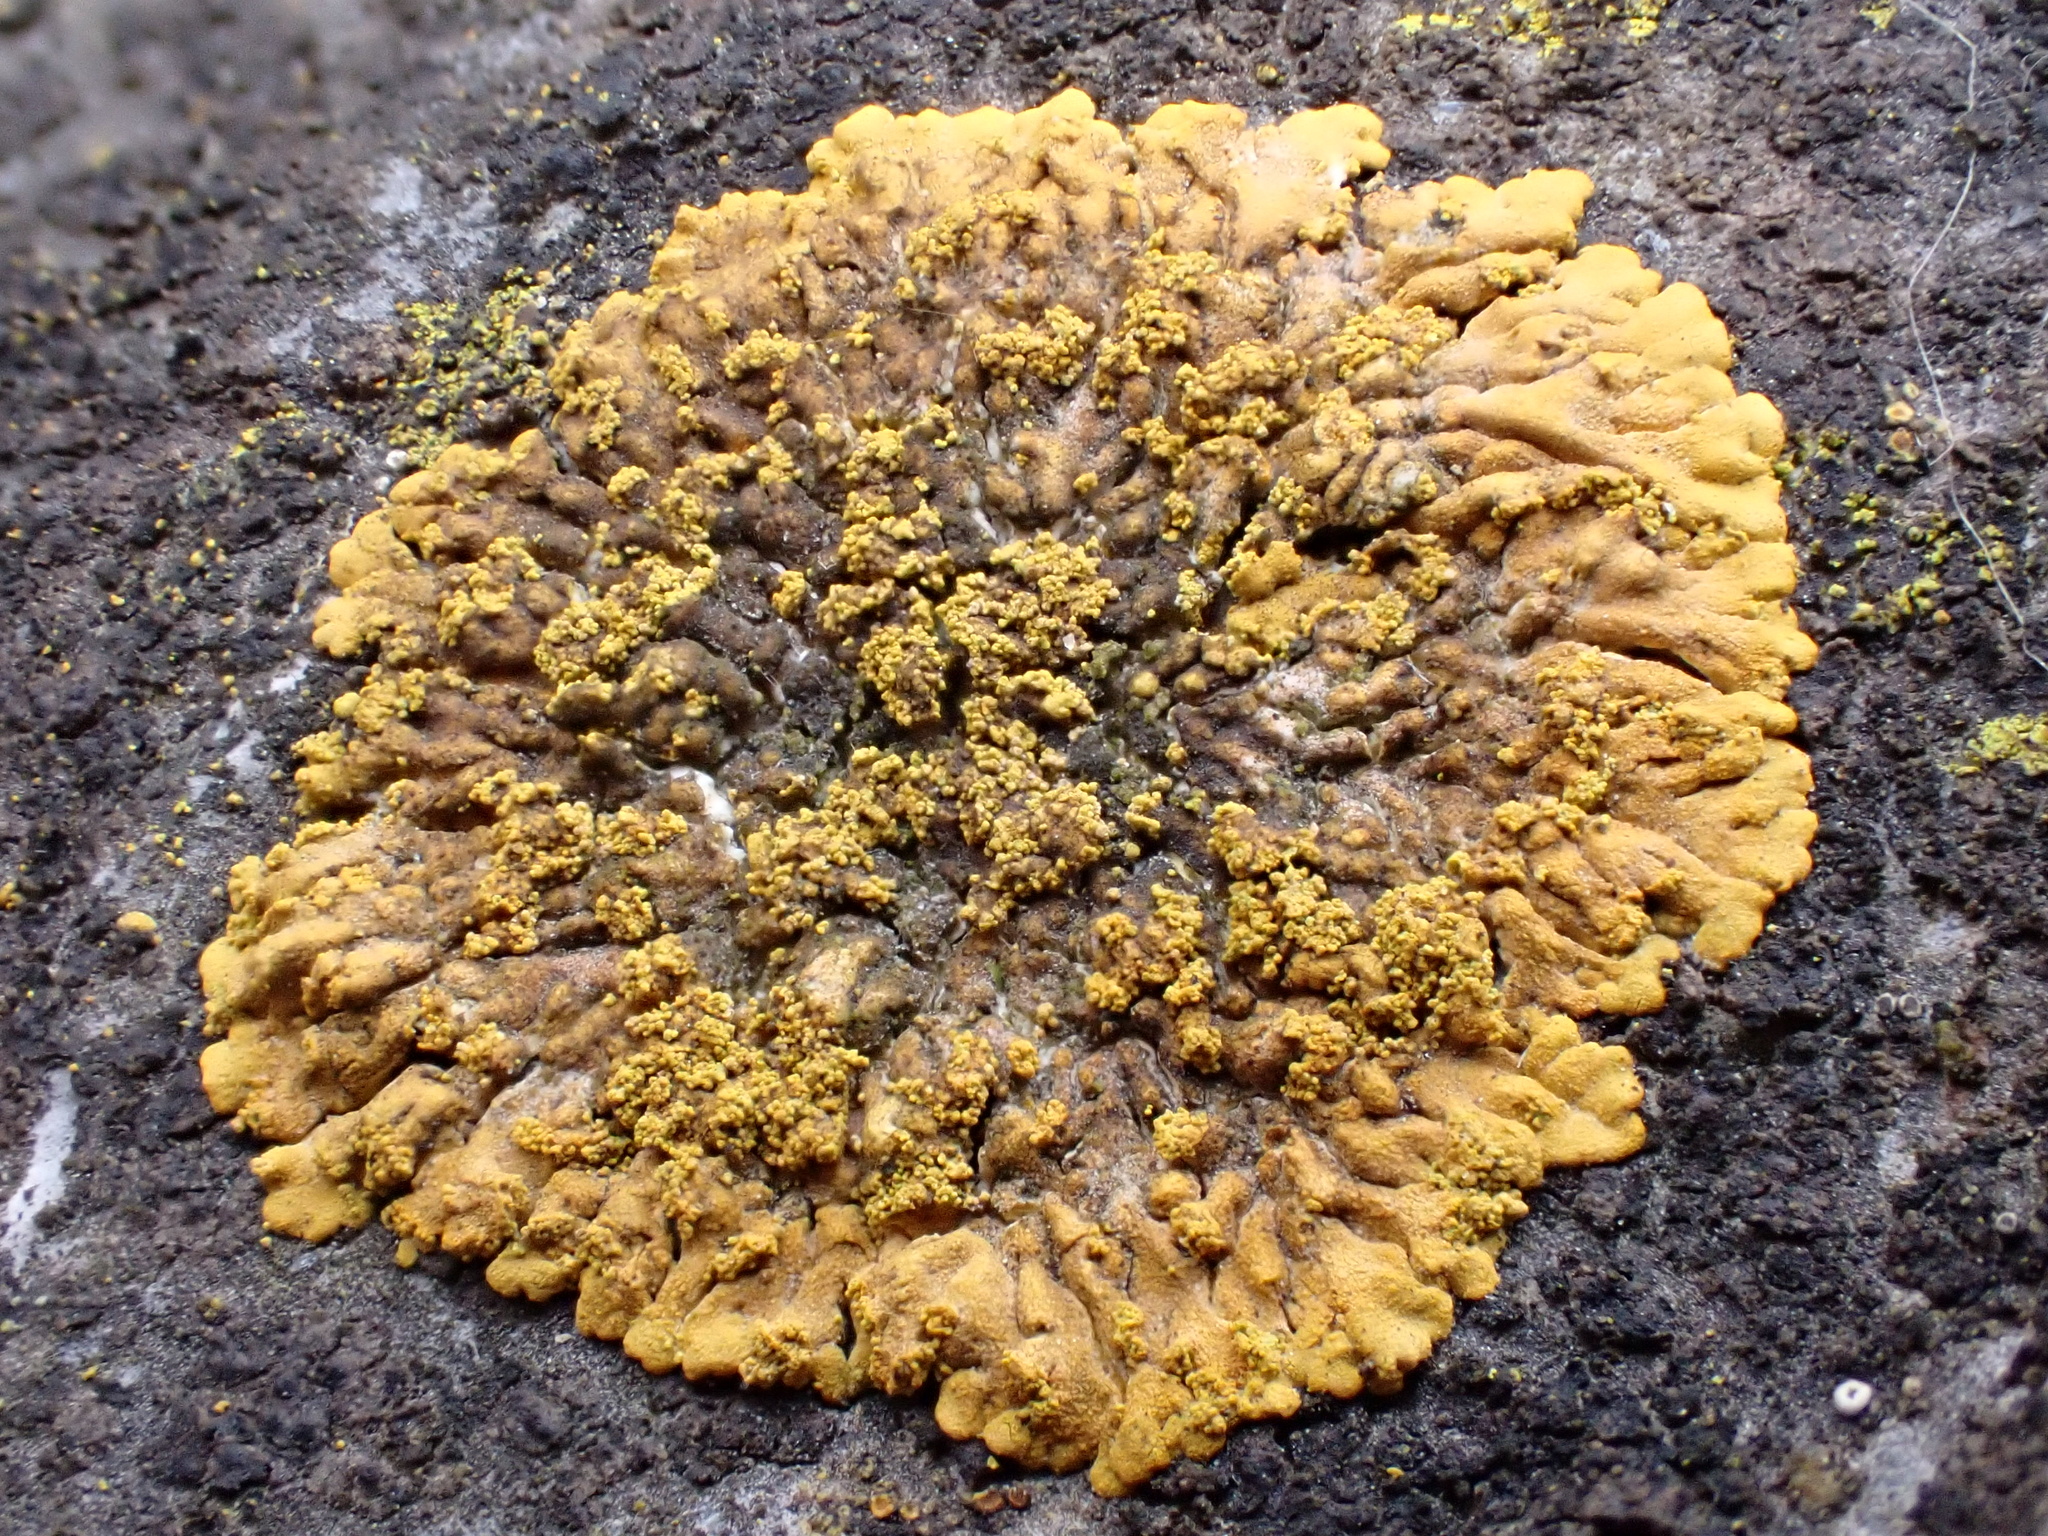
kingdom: Fungi
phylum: Ascomycota
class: Lecanoromycetes
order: Teloschistales
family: Teloschistaceae
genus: Calogaya
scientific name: Calogaya decipiens
